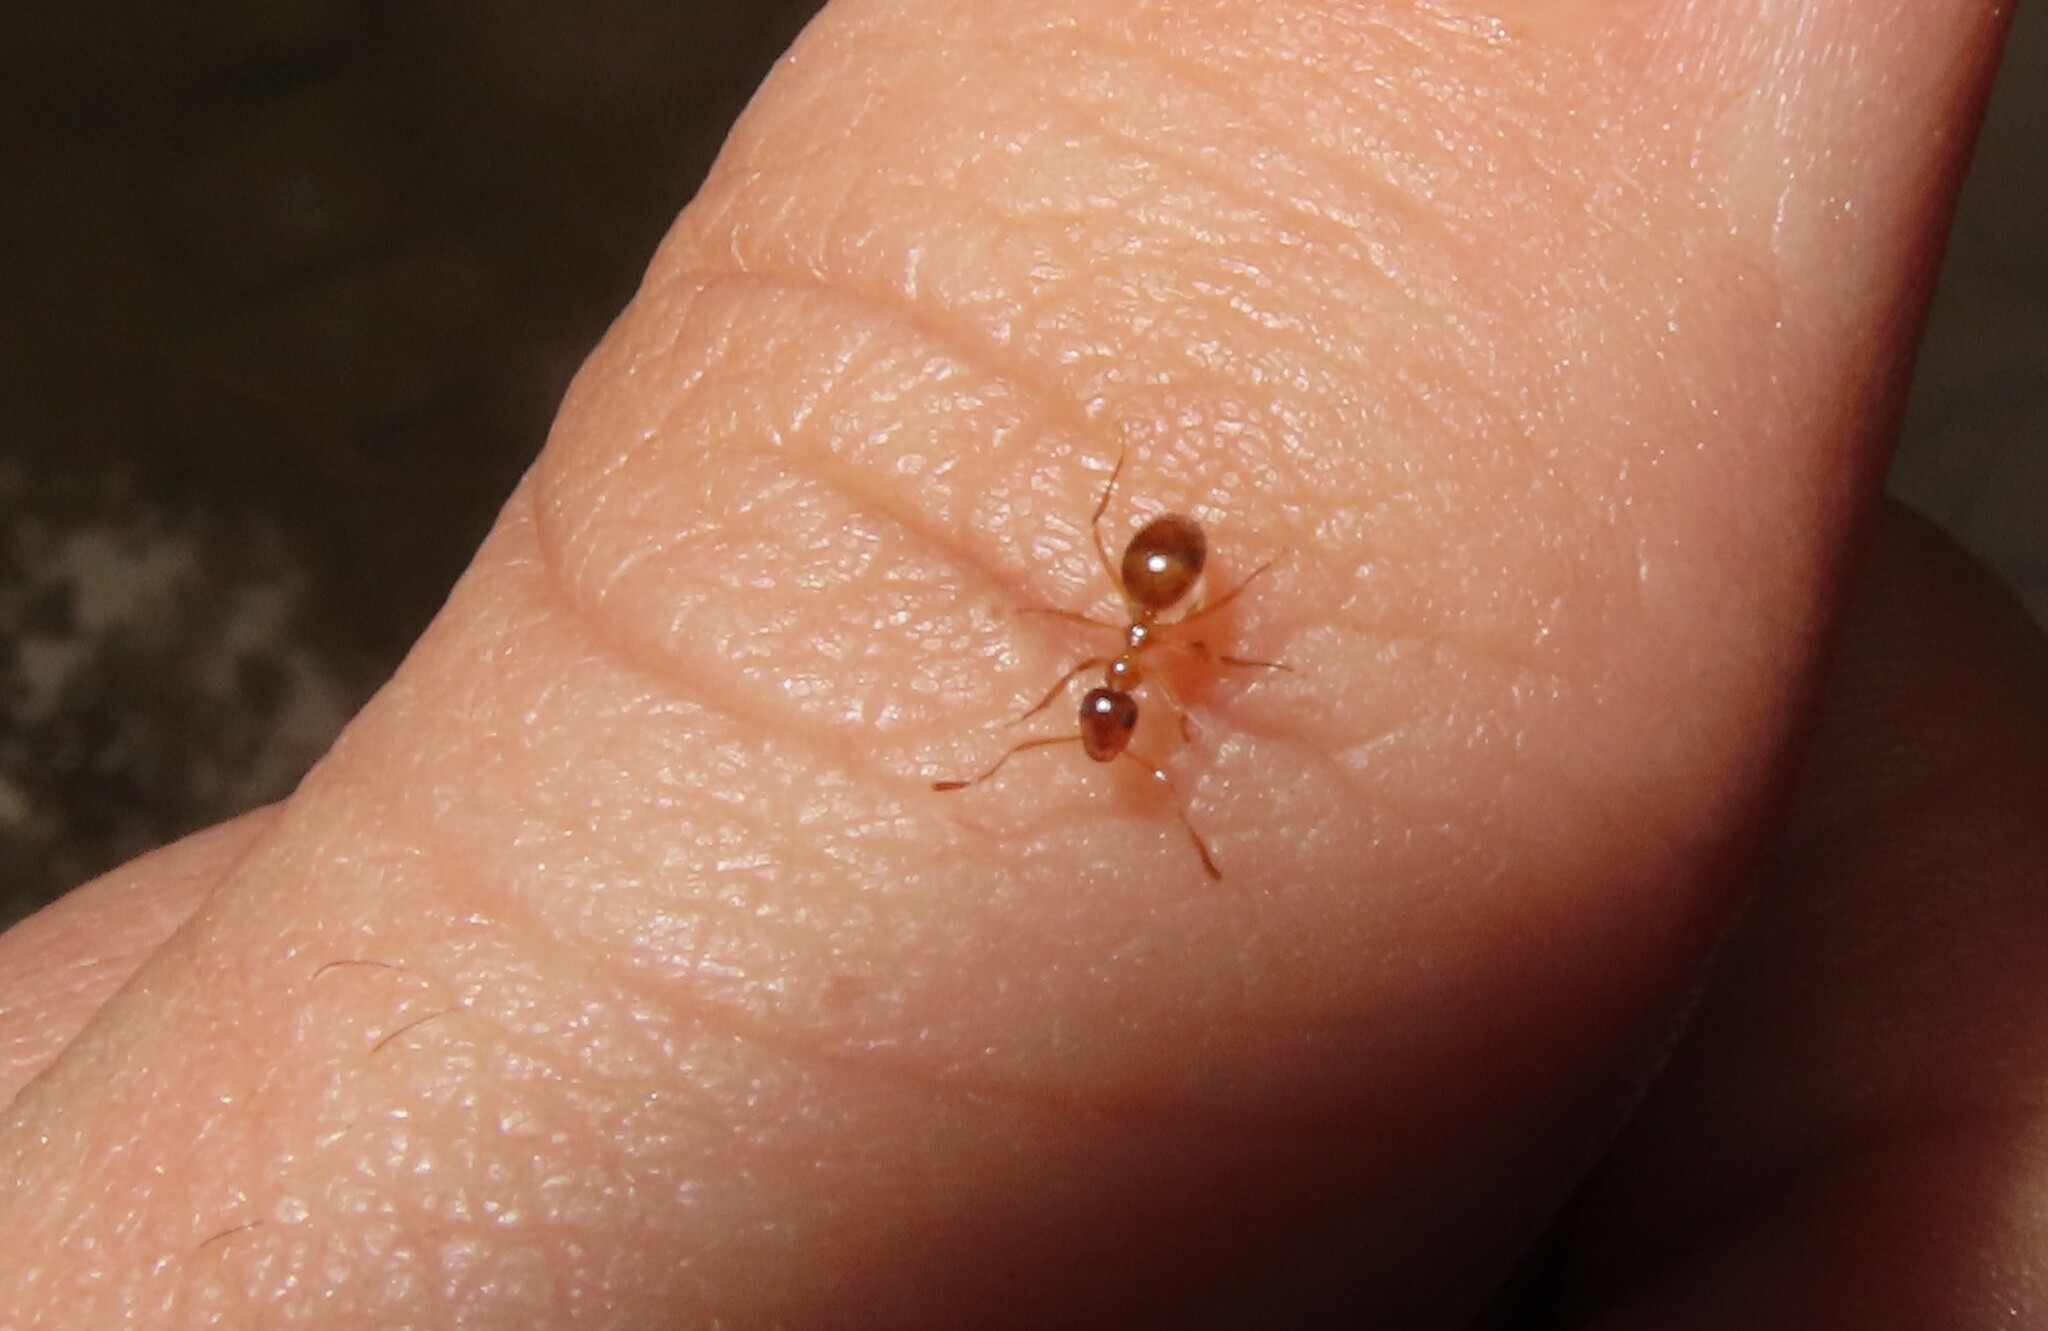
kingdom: Animalia
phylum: Arthropoda
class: Insecta
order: Hymenoptera
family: Formicidae
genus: Prenolepis
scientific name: Prenolepis imparis
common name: Small honey ant
